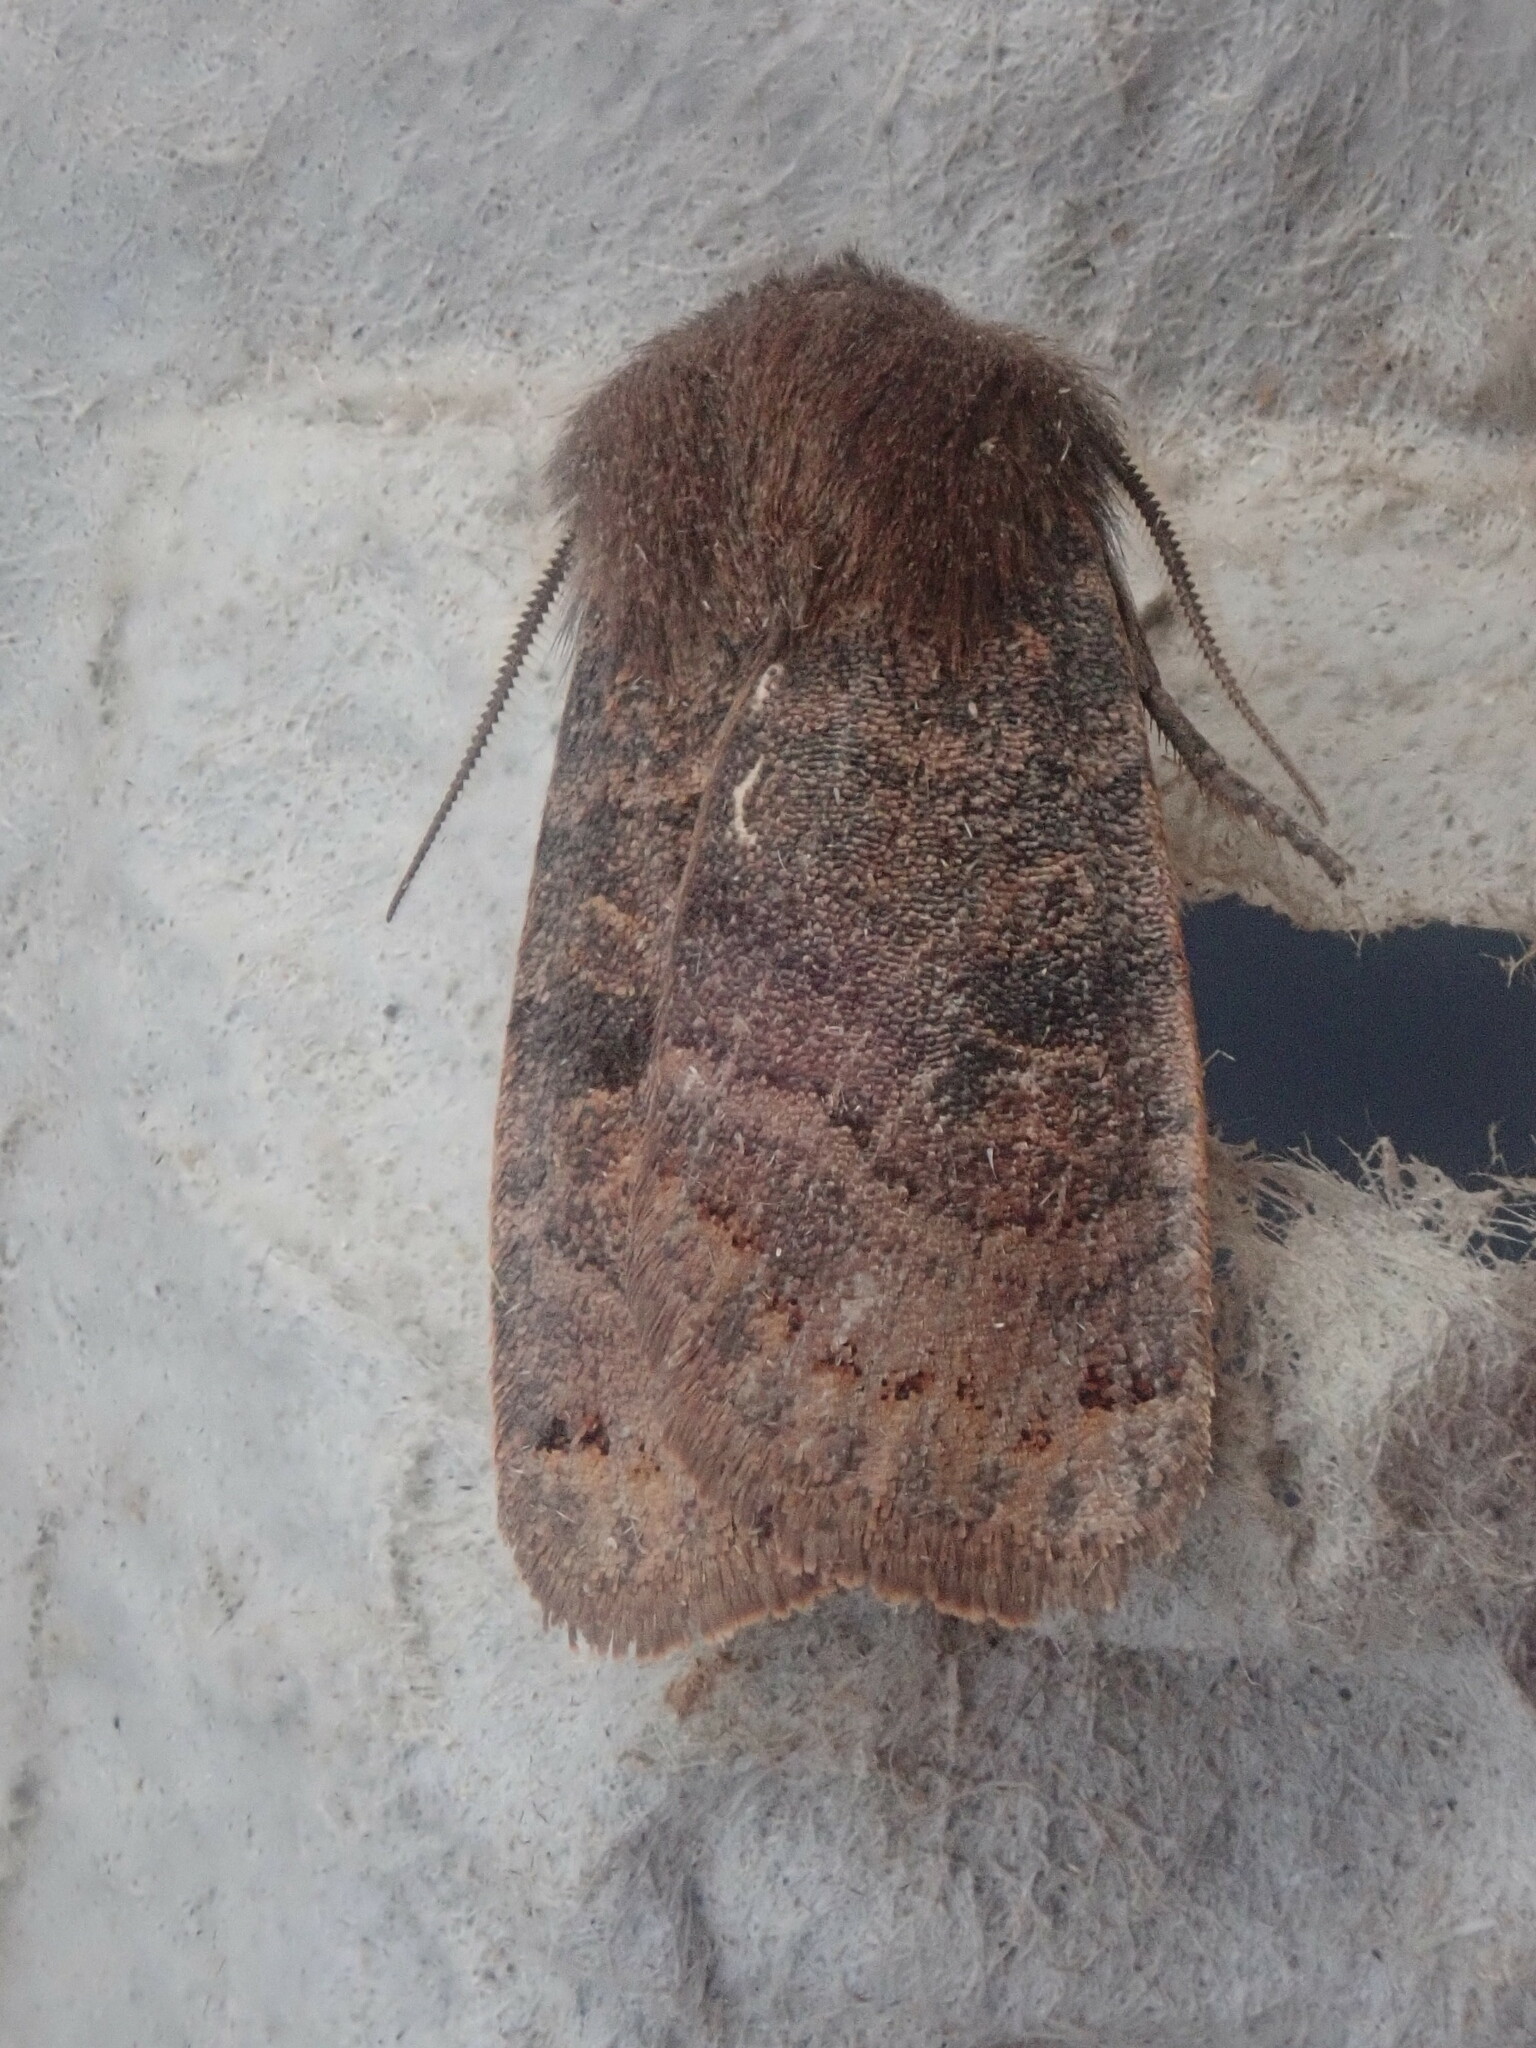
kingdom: Animalia
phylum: Arthropoda
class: Insecta
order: Lepidoptera
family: Noctuidae
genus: Homoglaea
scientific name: Homoglaea hircina
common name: Goat sallow
